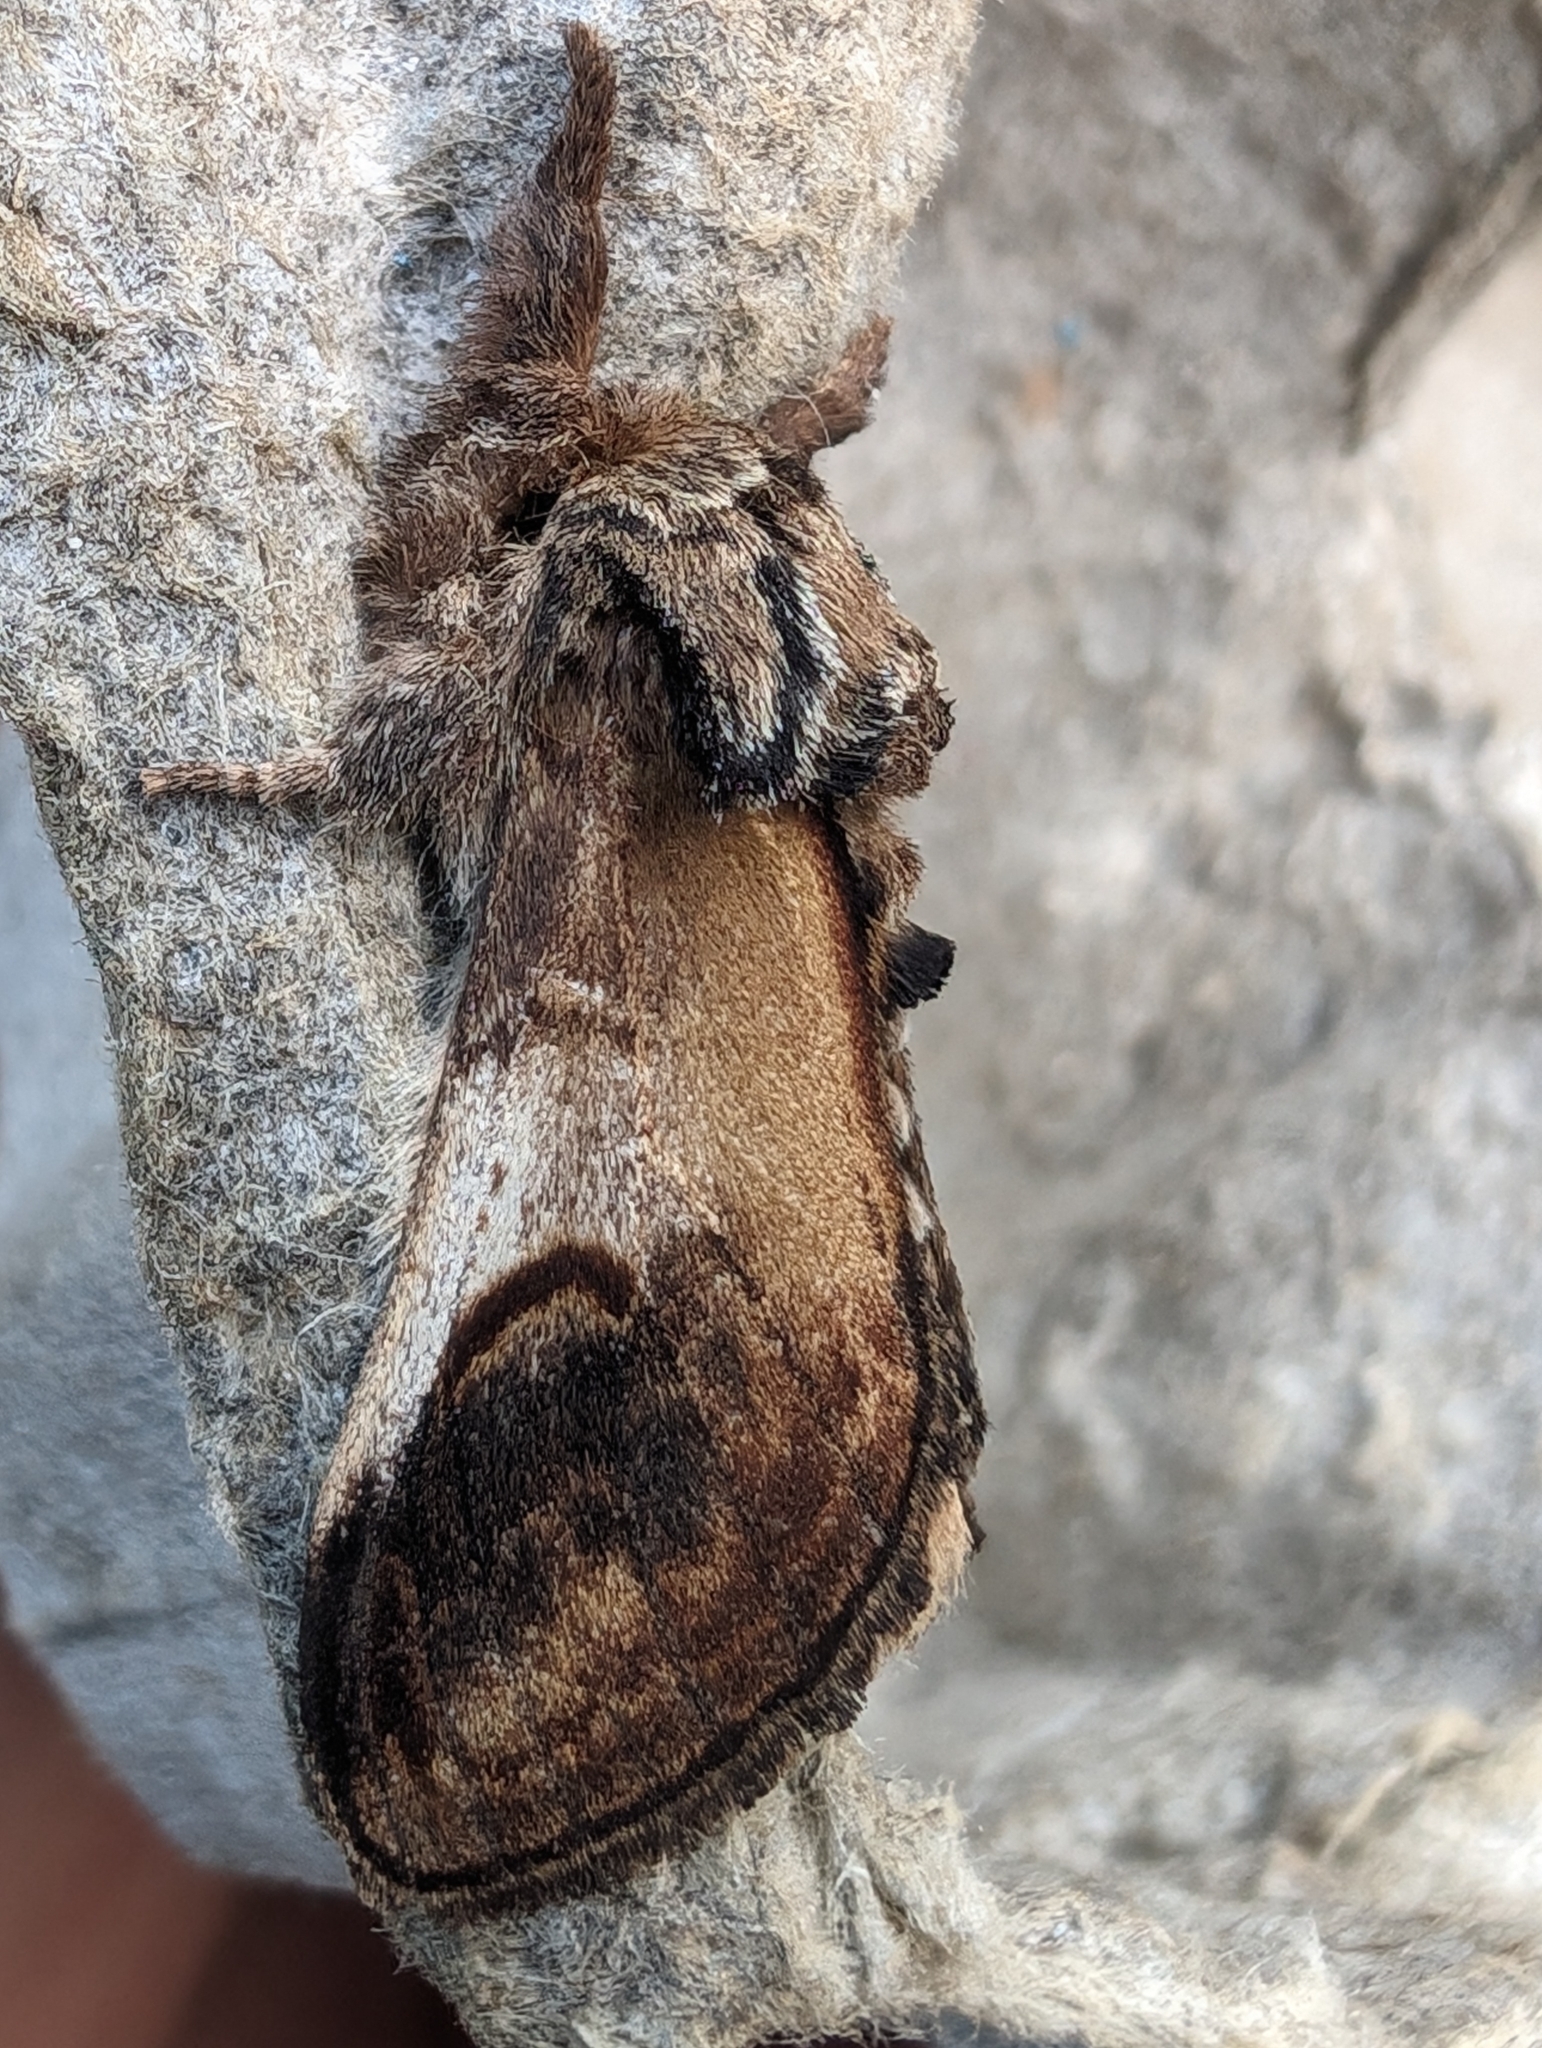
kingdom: Animalia
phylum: Arthropoda
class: Insecta
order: Lepidoptera
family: Notodontidae
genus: Notodonta
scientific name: Notodonta ziczac
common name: Pebble prominent
